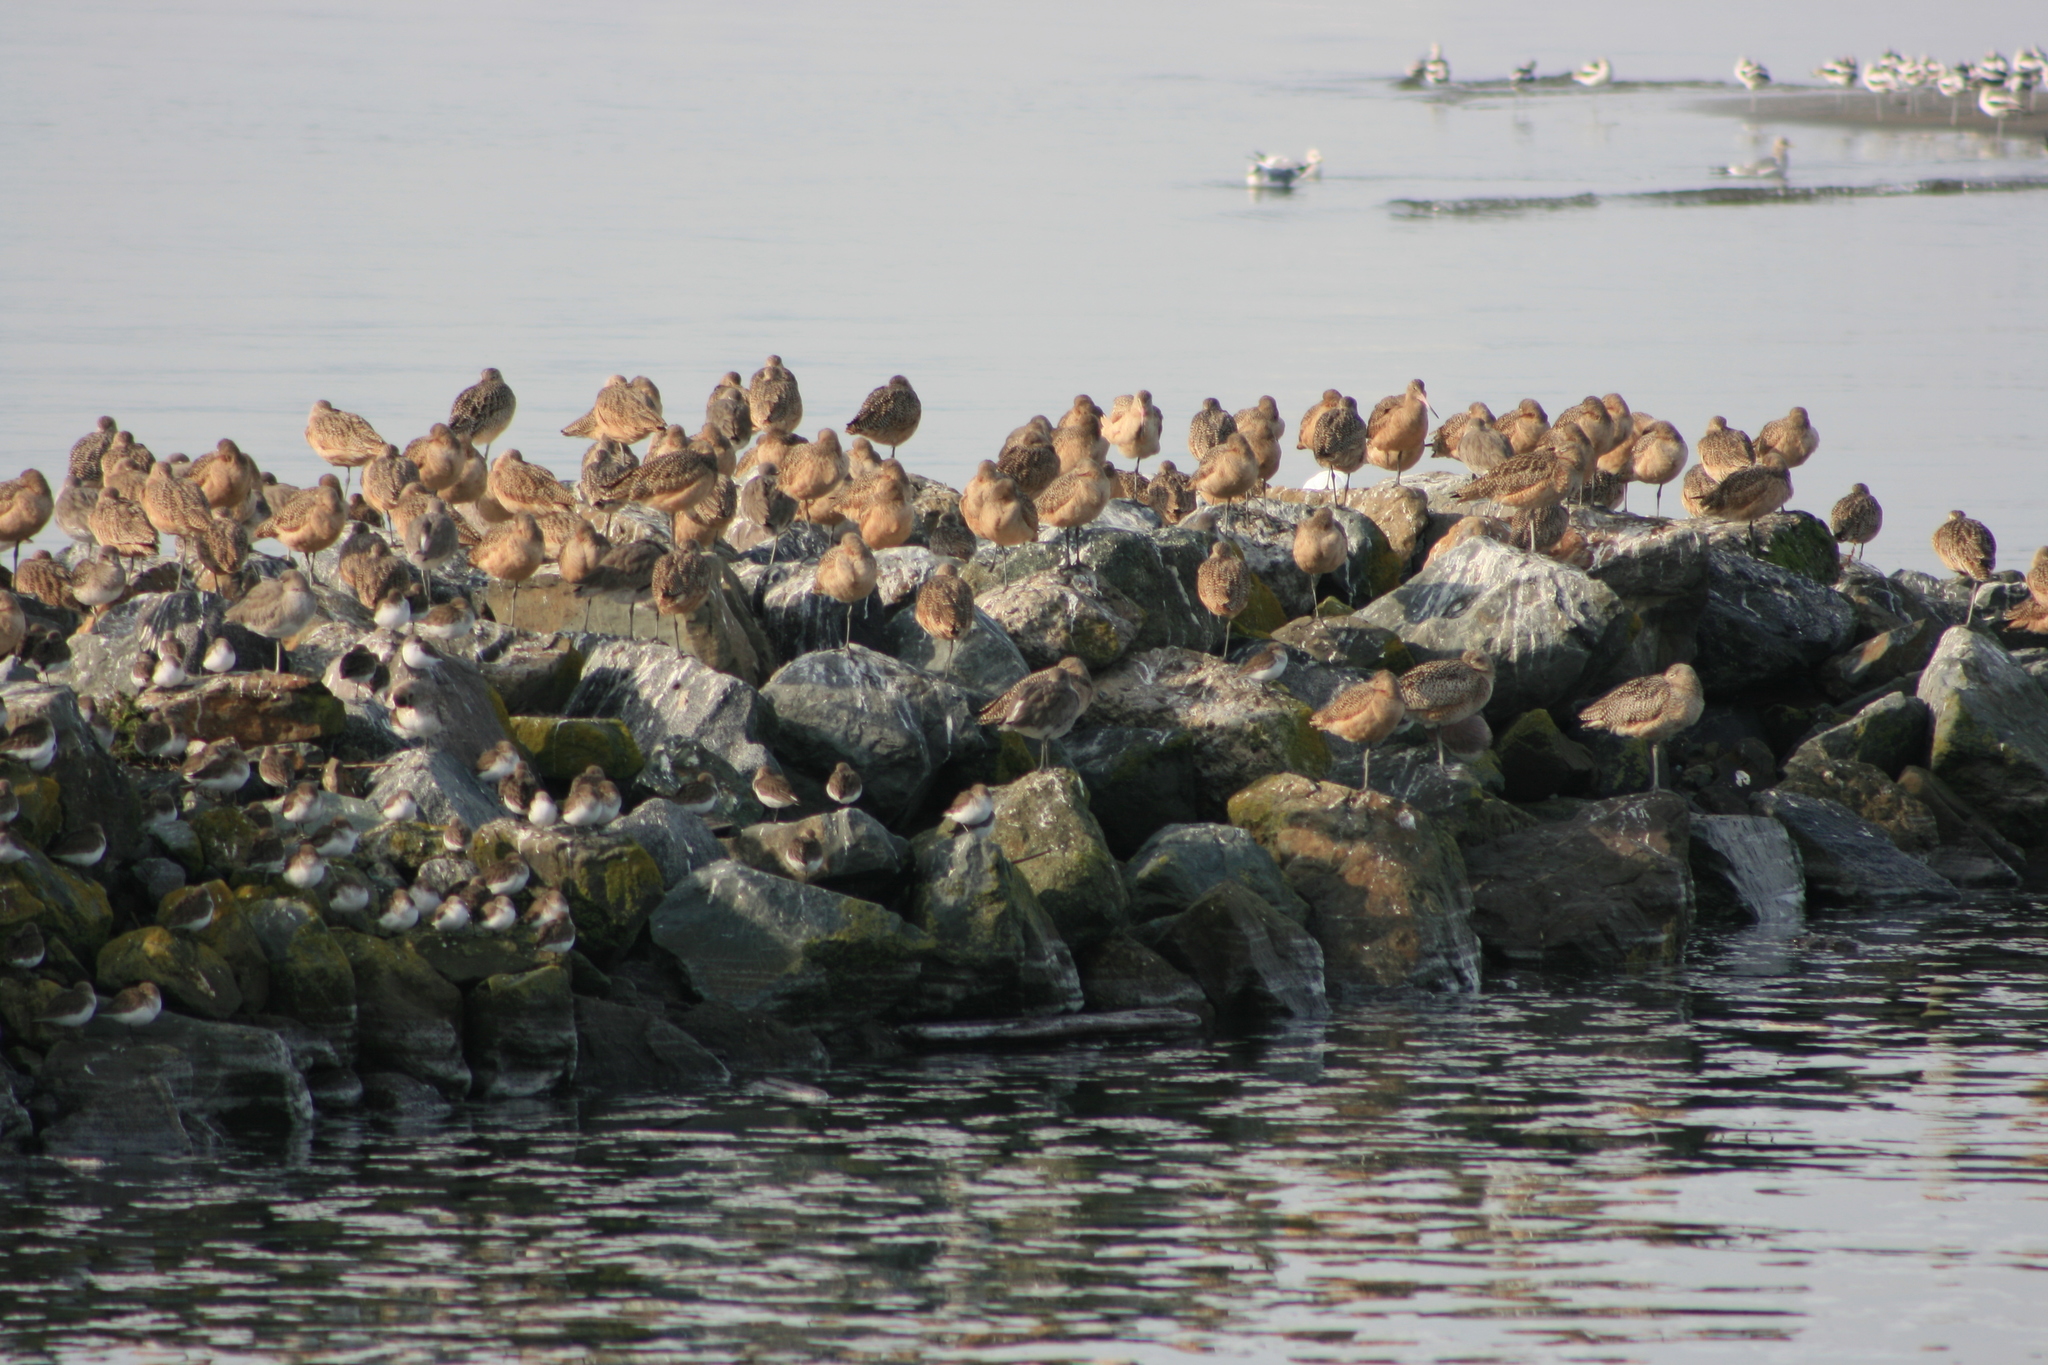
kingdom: Animalia
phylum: Chordata
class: Aves
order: Charadriiformes
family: Scolopacidae
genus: Limosa
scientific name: Limosa fedoa
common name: Marbled godwit
